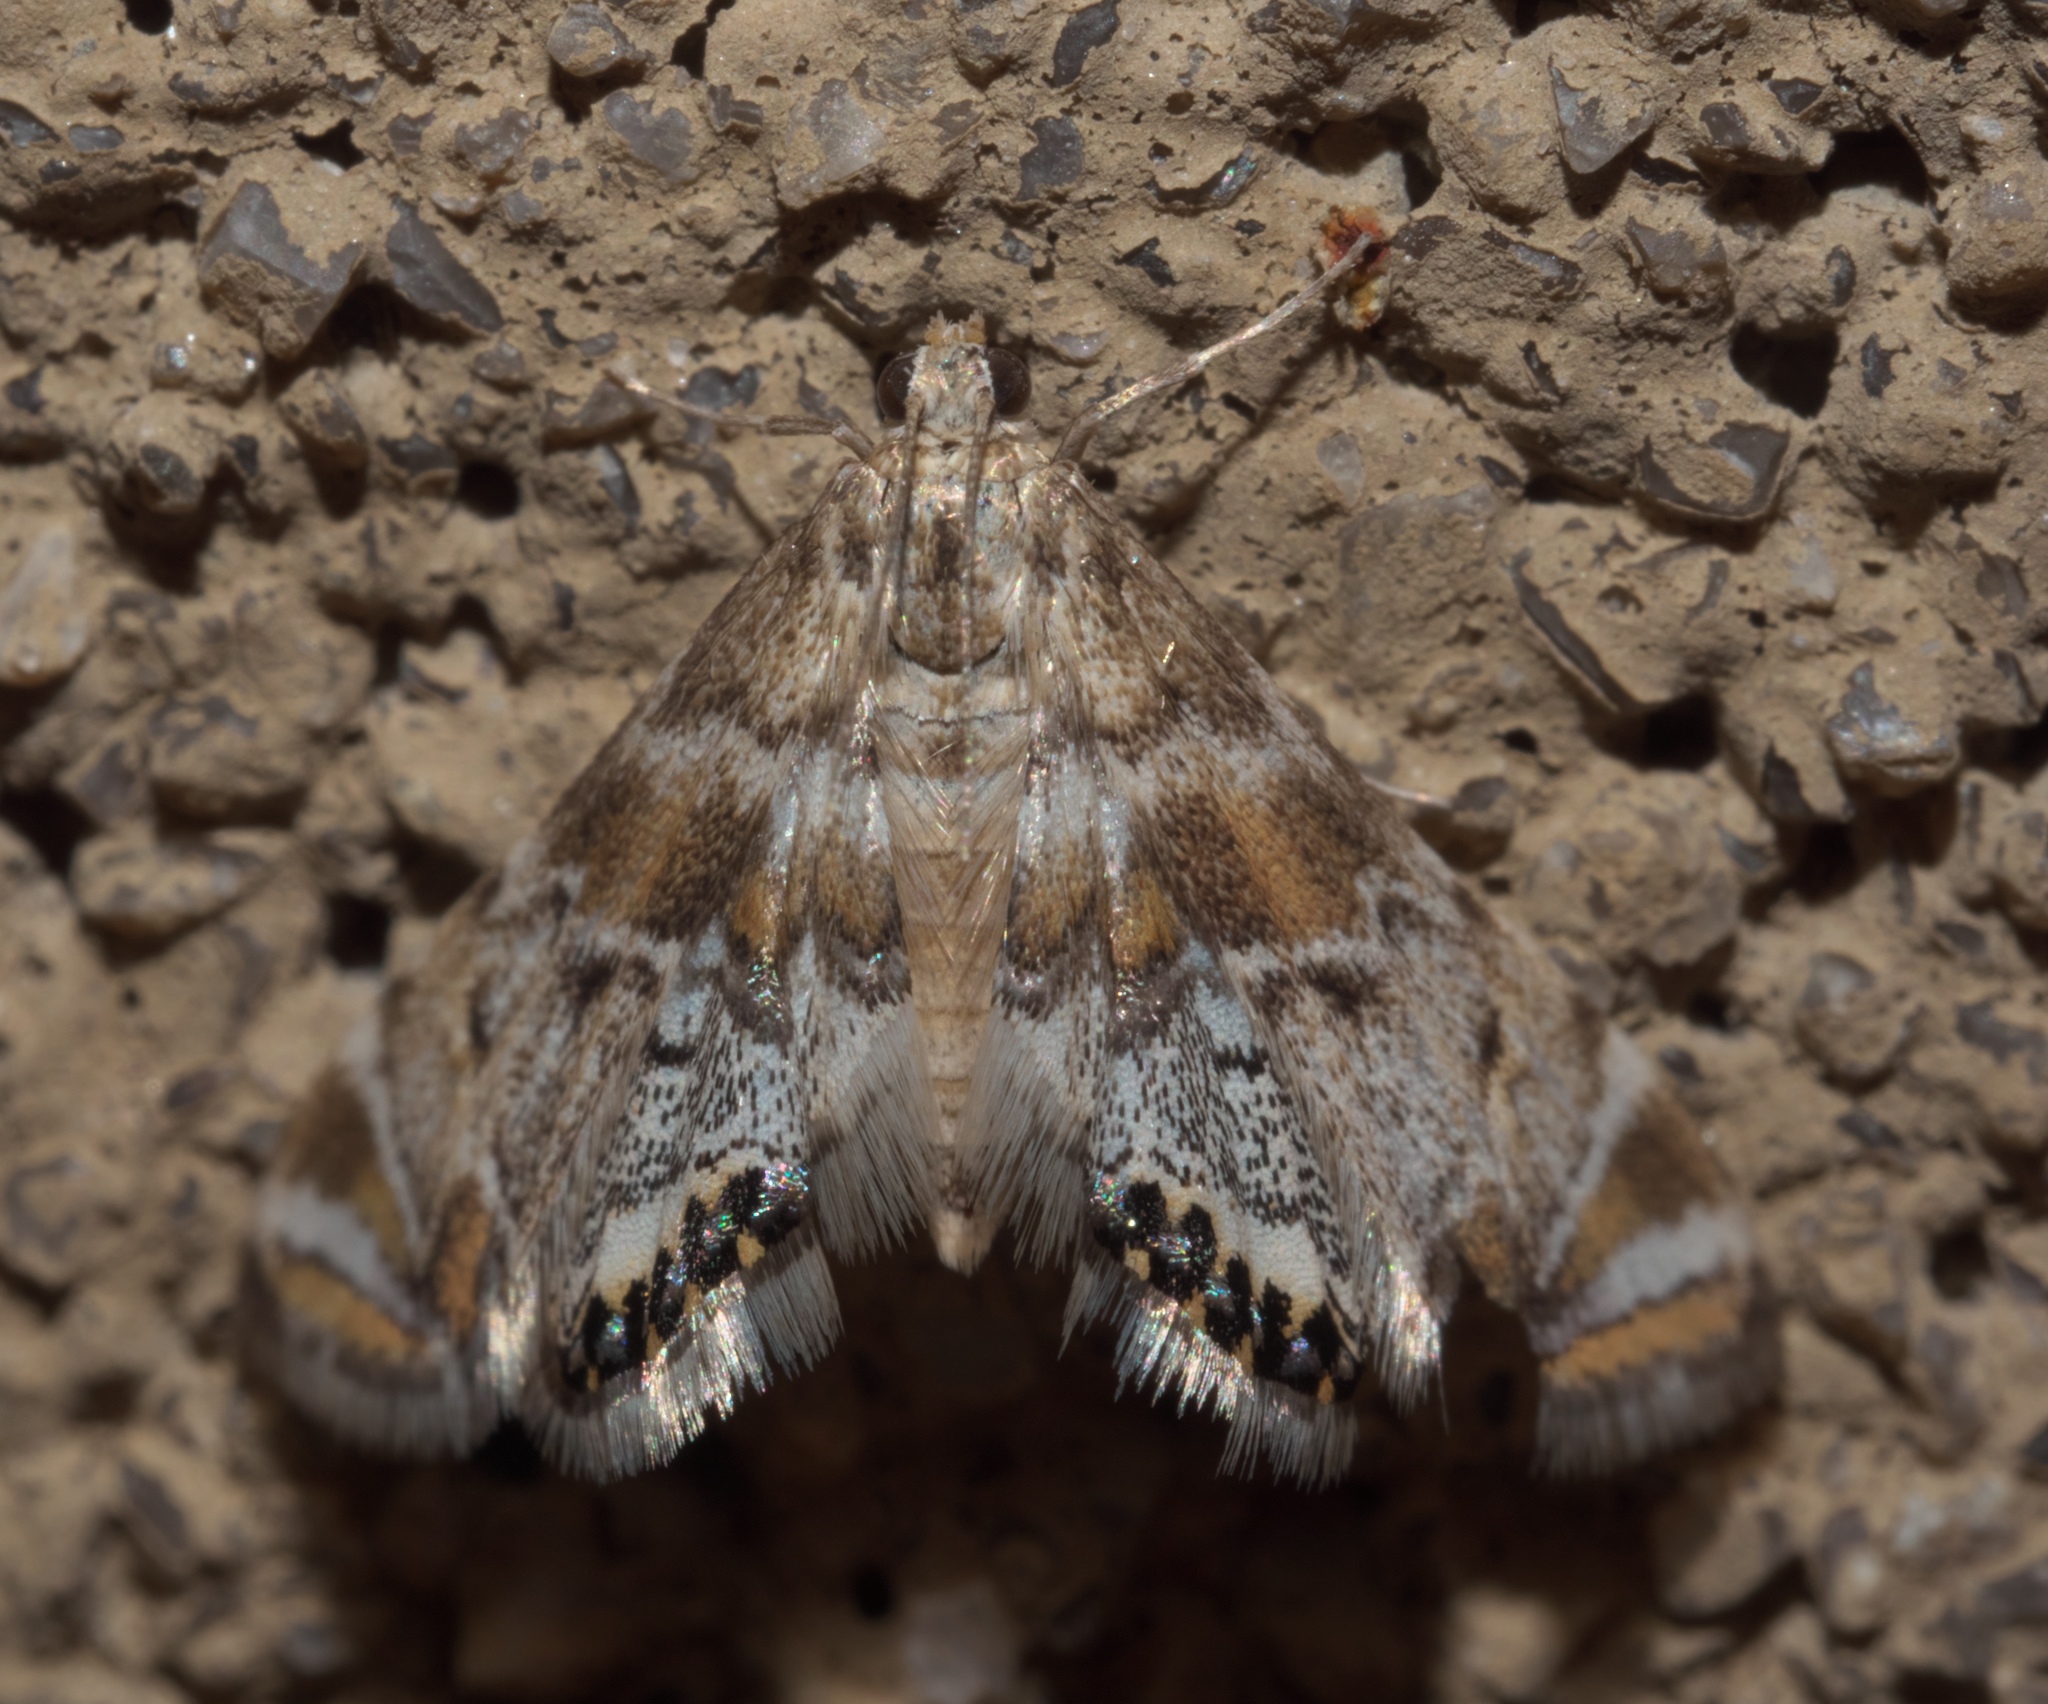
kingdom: Animalia
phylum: Arthropoda
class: Insecta
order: Lepidoptera
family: Crambidae
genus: Petrophila
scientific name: Petrophila confusalis
